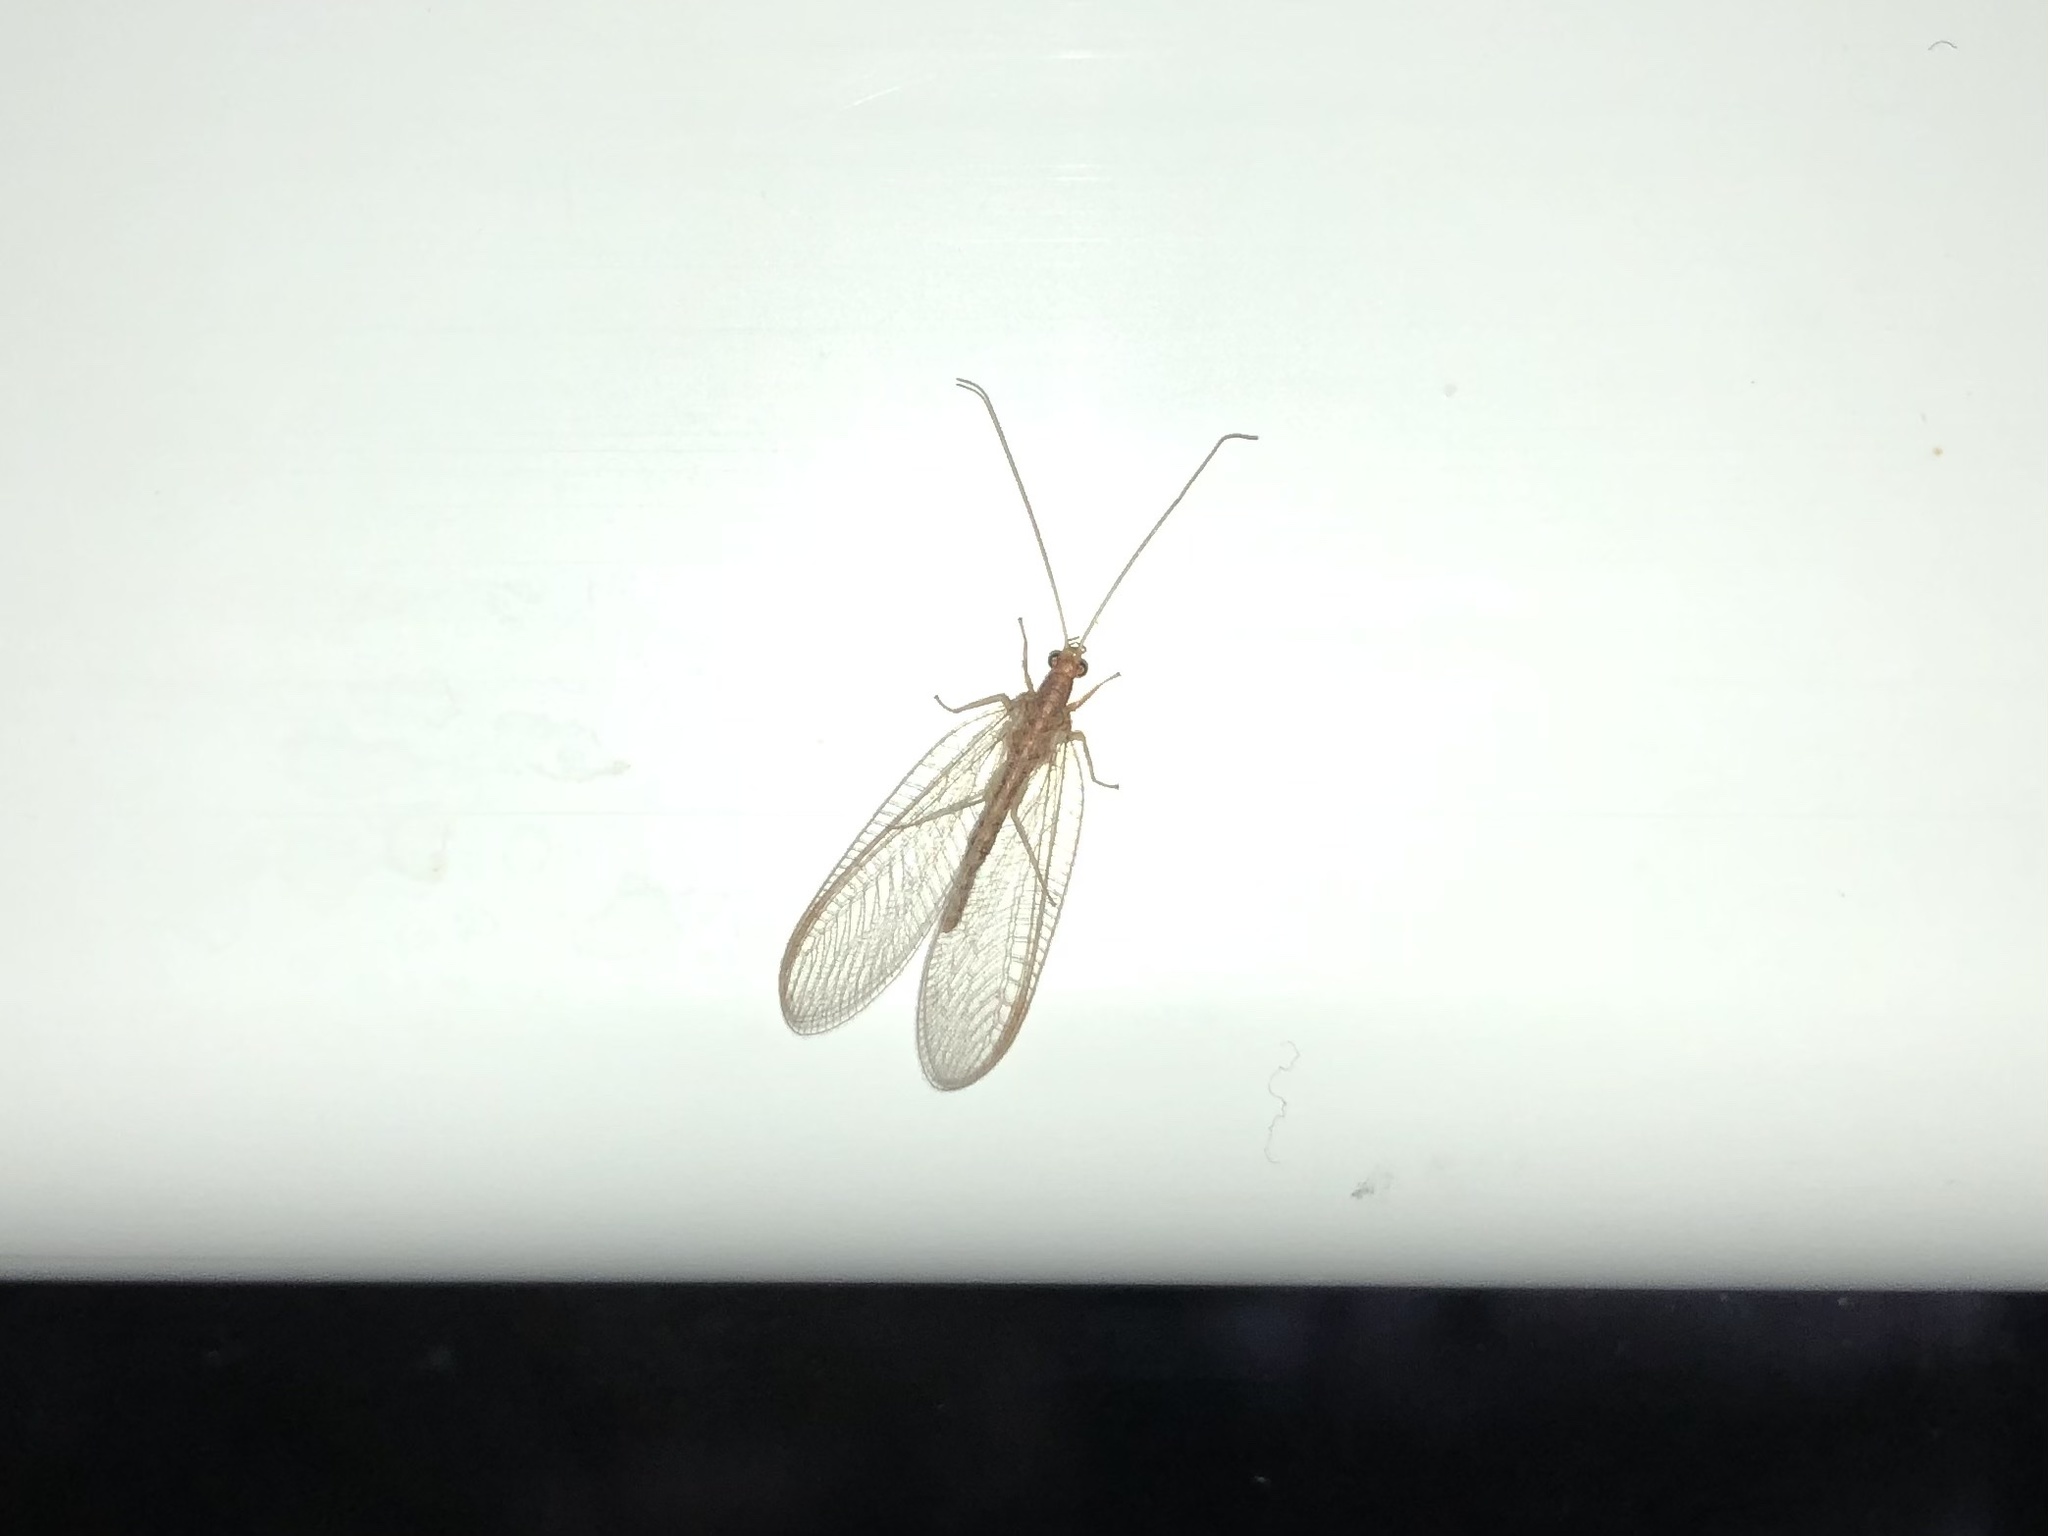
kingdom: Animalia
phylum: Arthropoda
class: Insecta
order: Neuroptera
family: Chrysopidae
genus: Chrysoperla
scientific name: Chrysoperla
